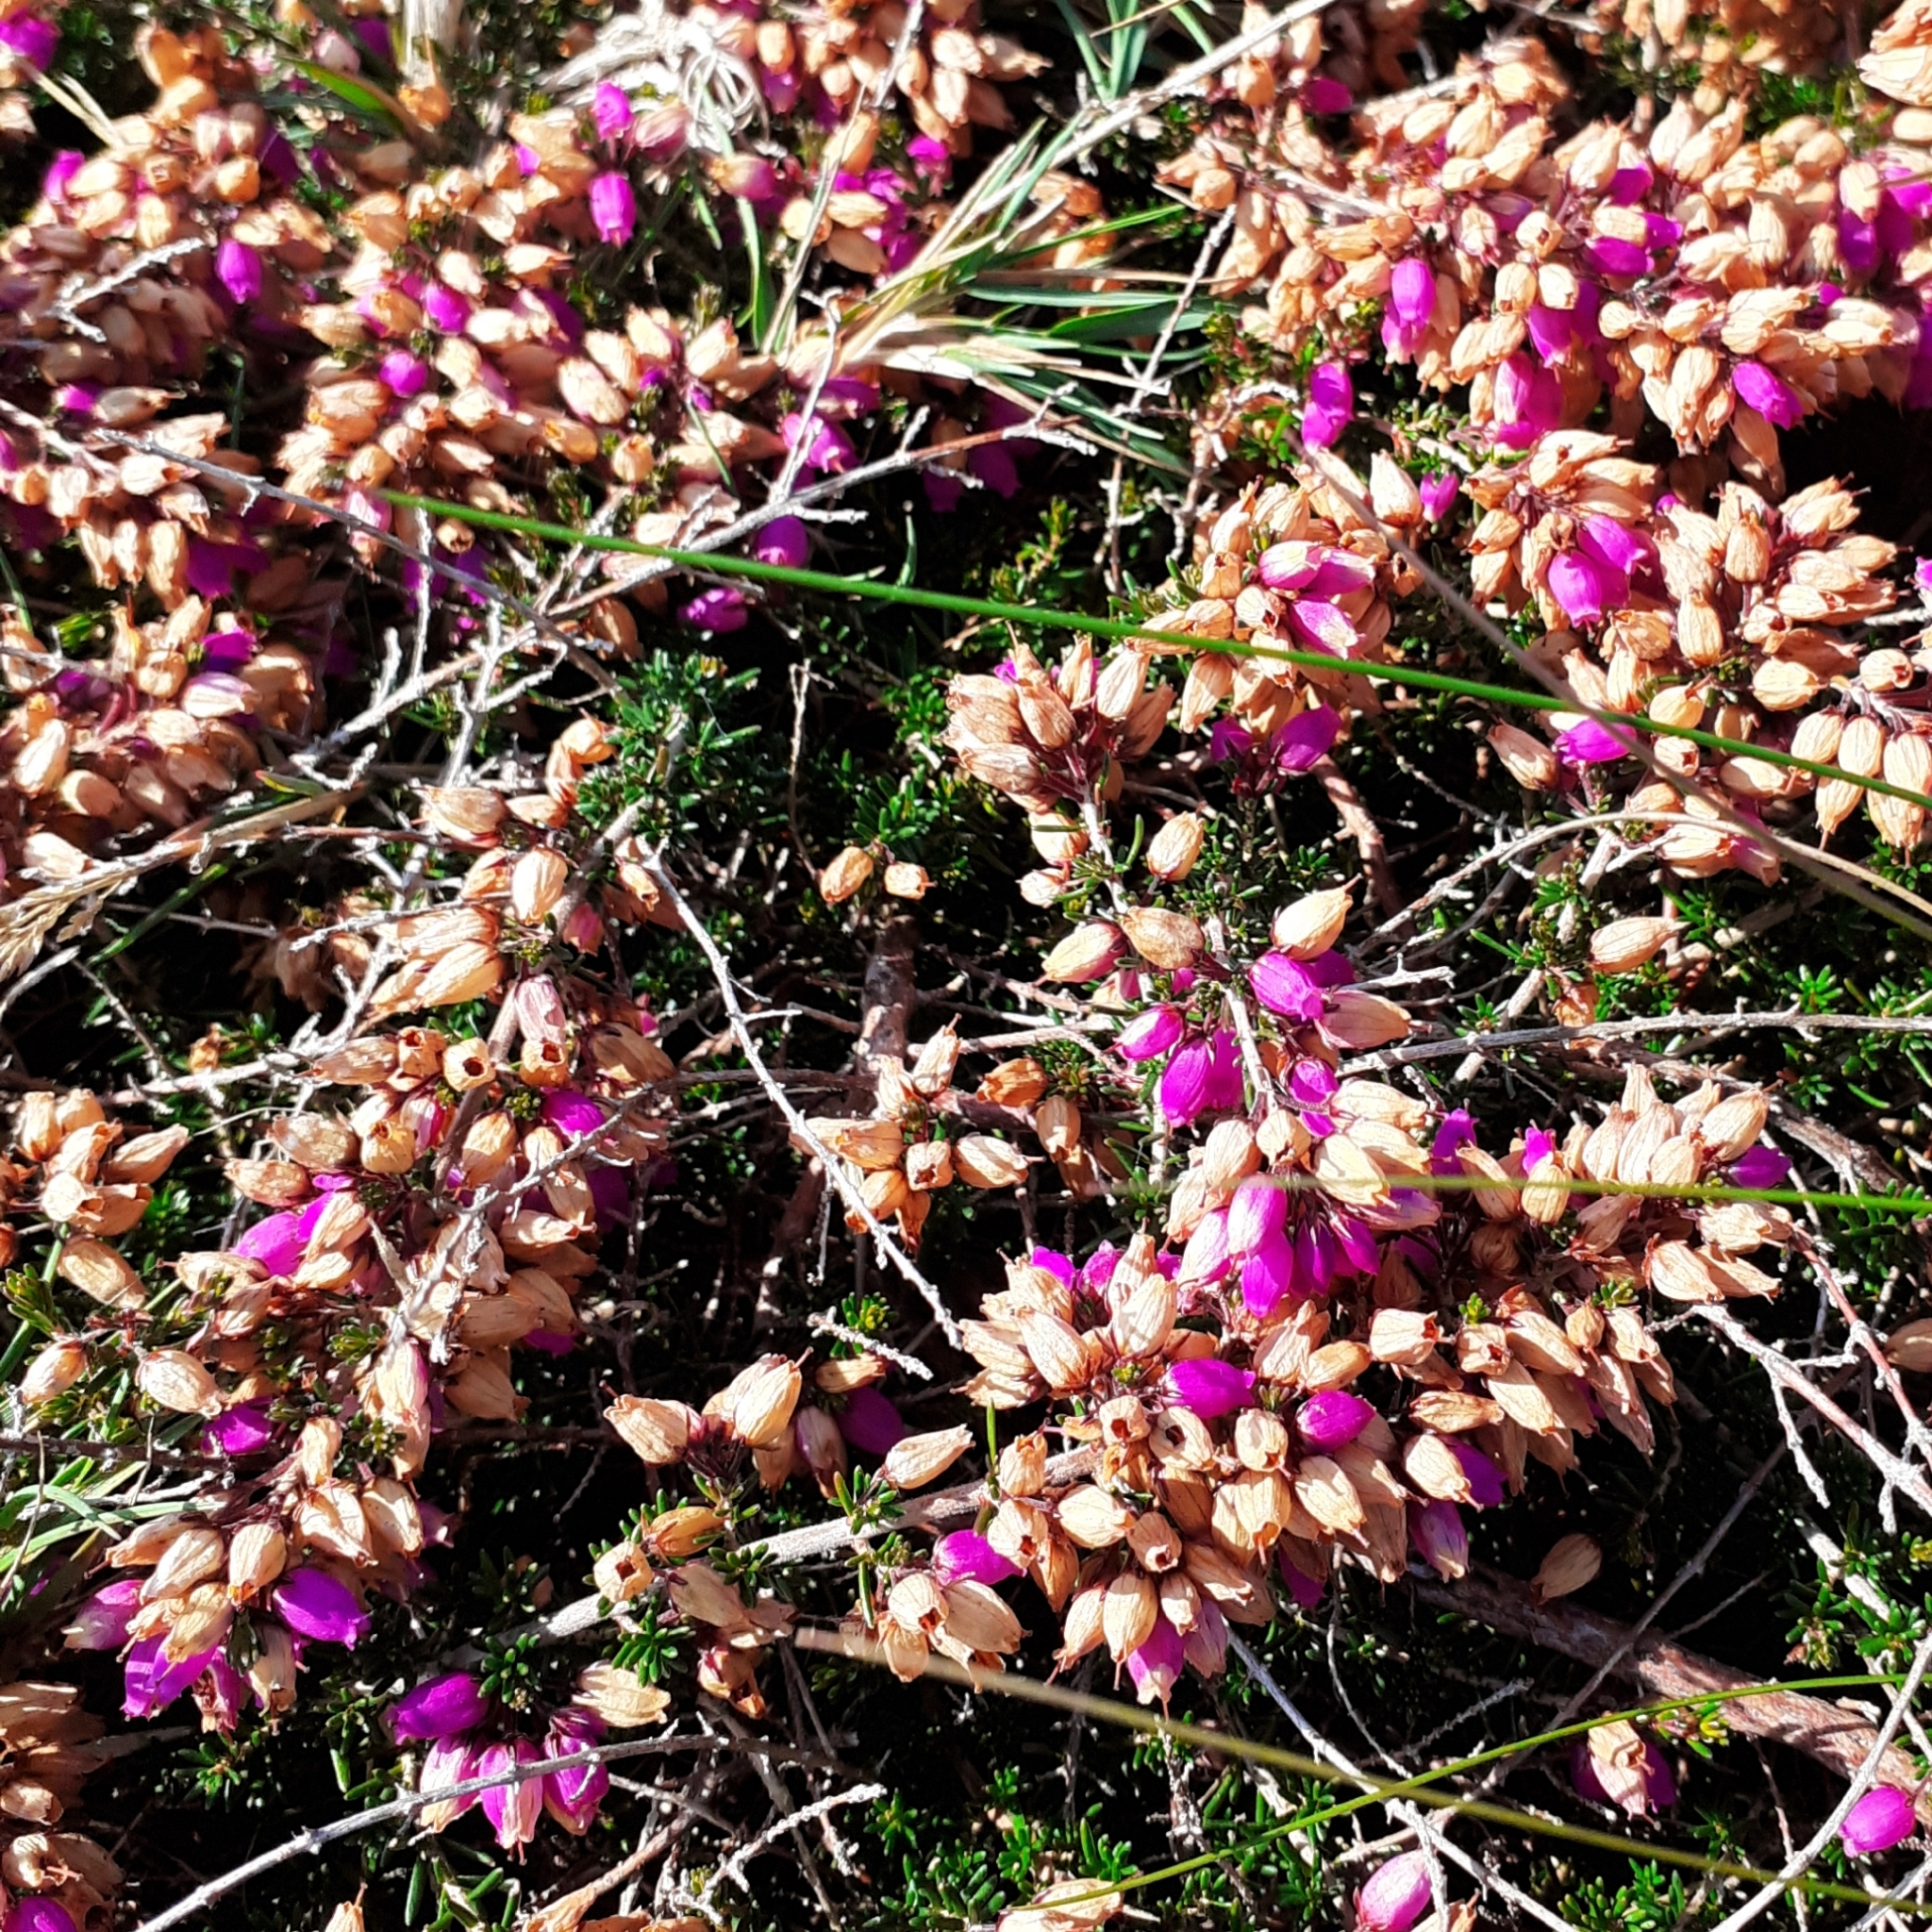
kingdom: Plantae
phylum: Tracheophyta
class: Magnoliopsida
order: Ericales
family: Ericaceae
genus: Erica
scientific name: Erica cinerea
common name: Bell heather
